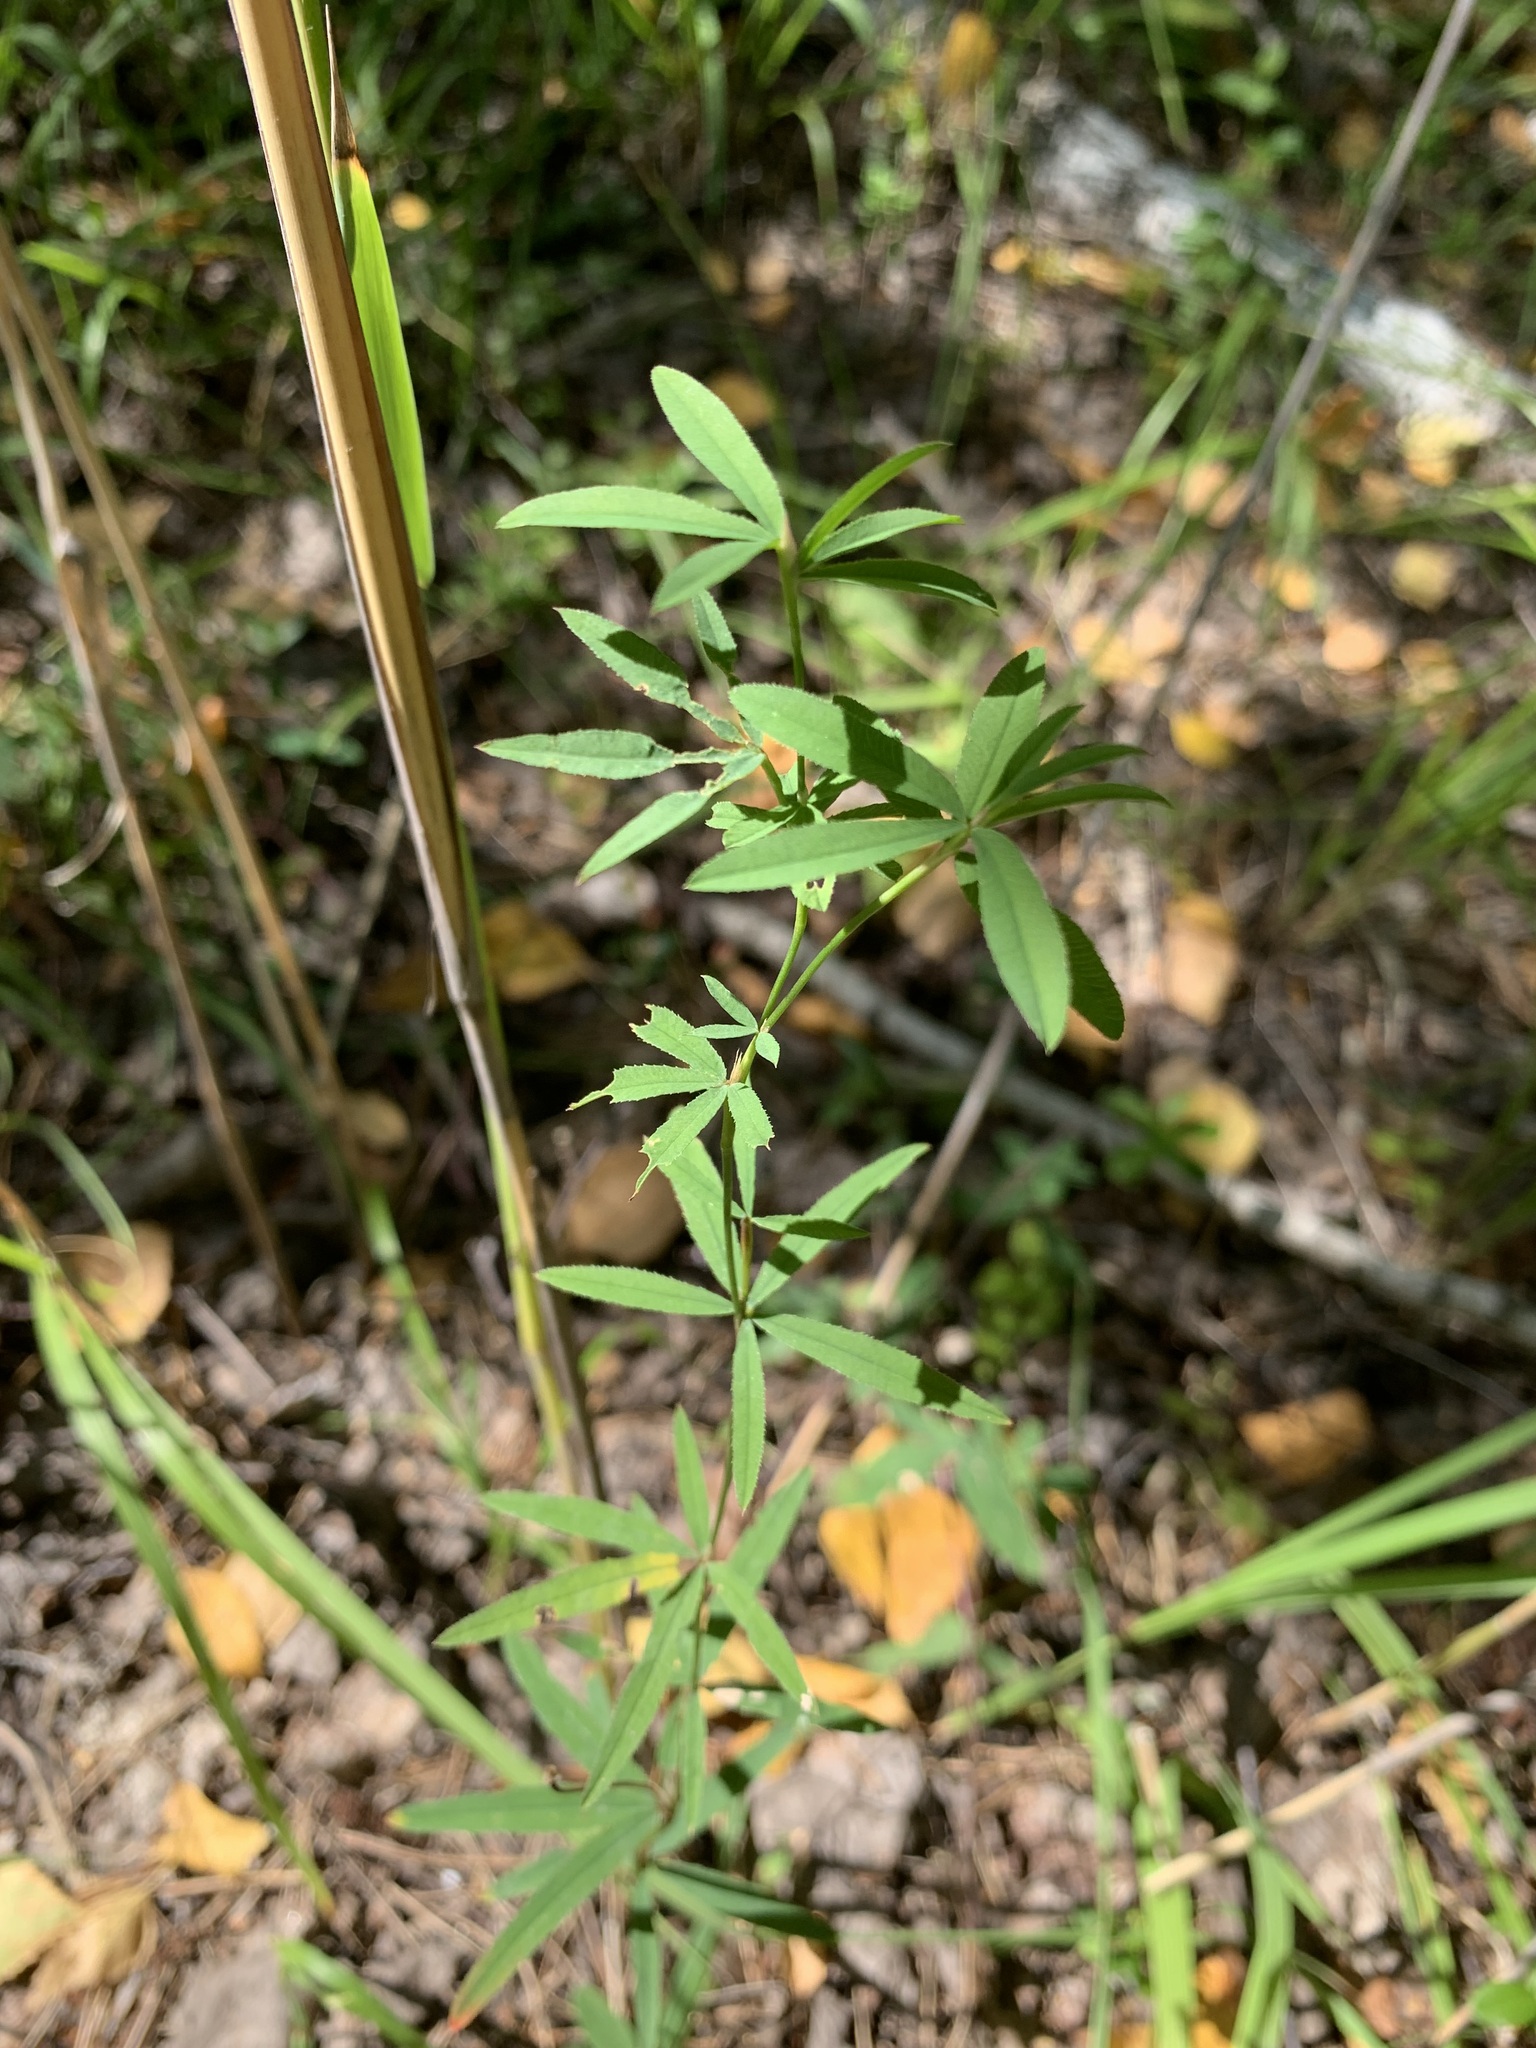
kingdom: Plantae
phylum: Tracheophyta
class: Magnoliopsida
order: Fabales
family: Fabaceae
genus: Trifolium
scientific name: Trifolium lupinaster
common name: Lupine clover
